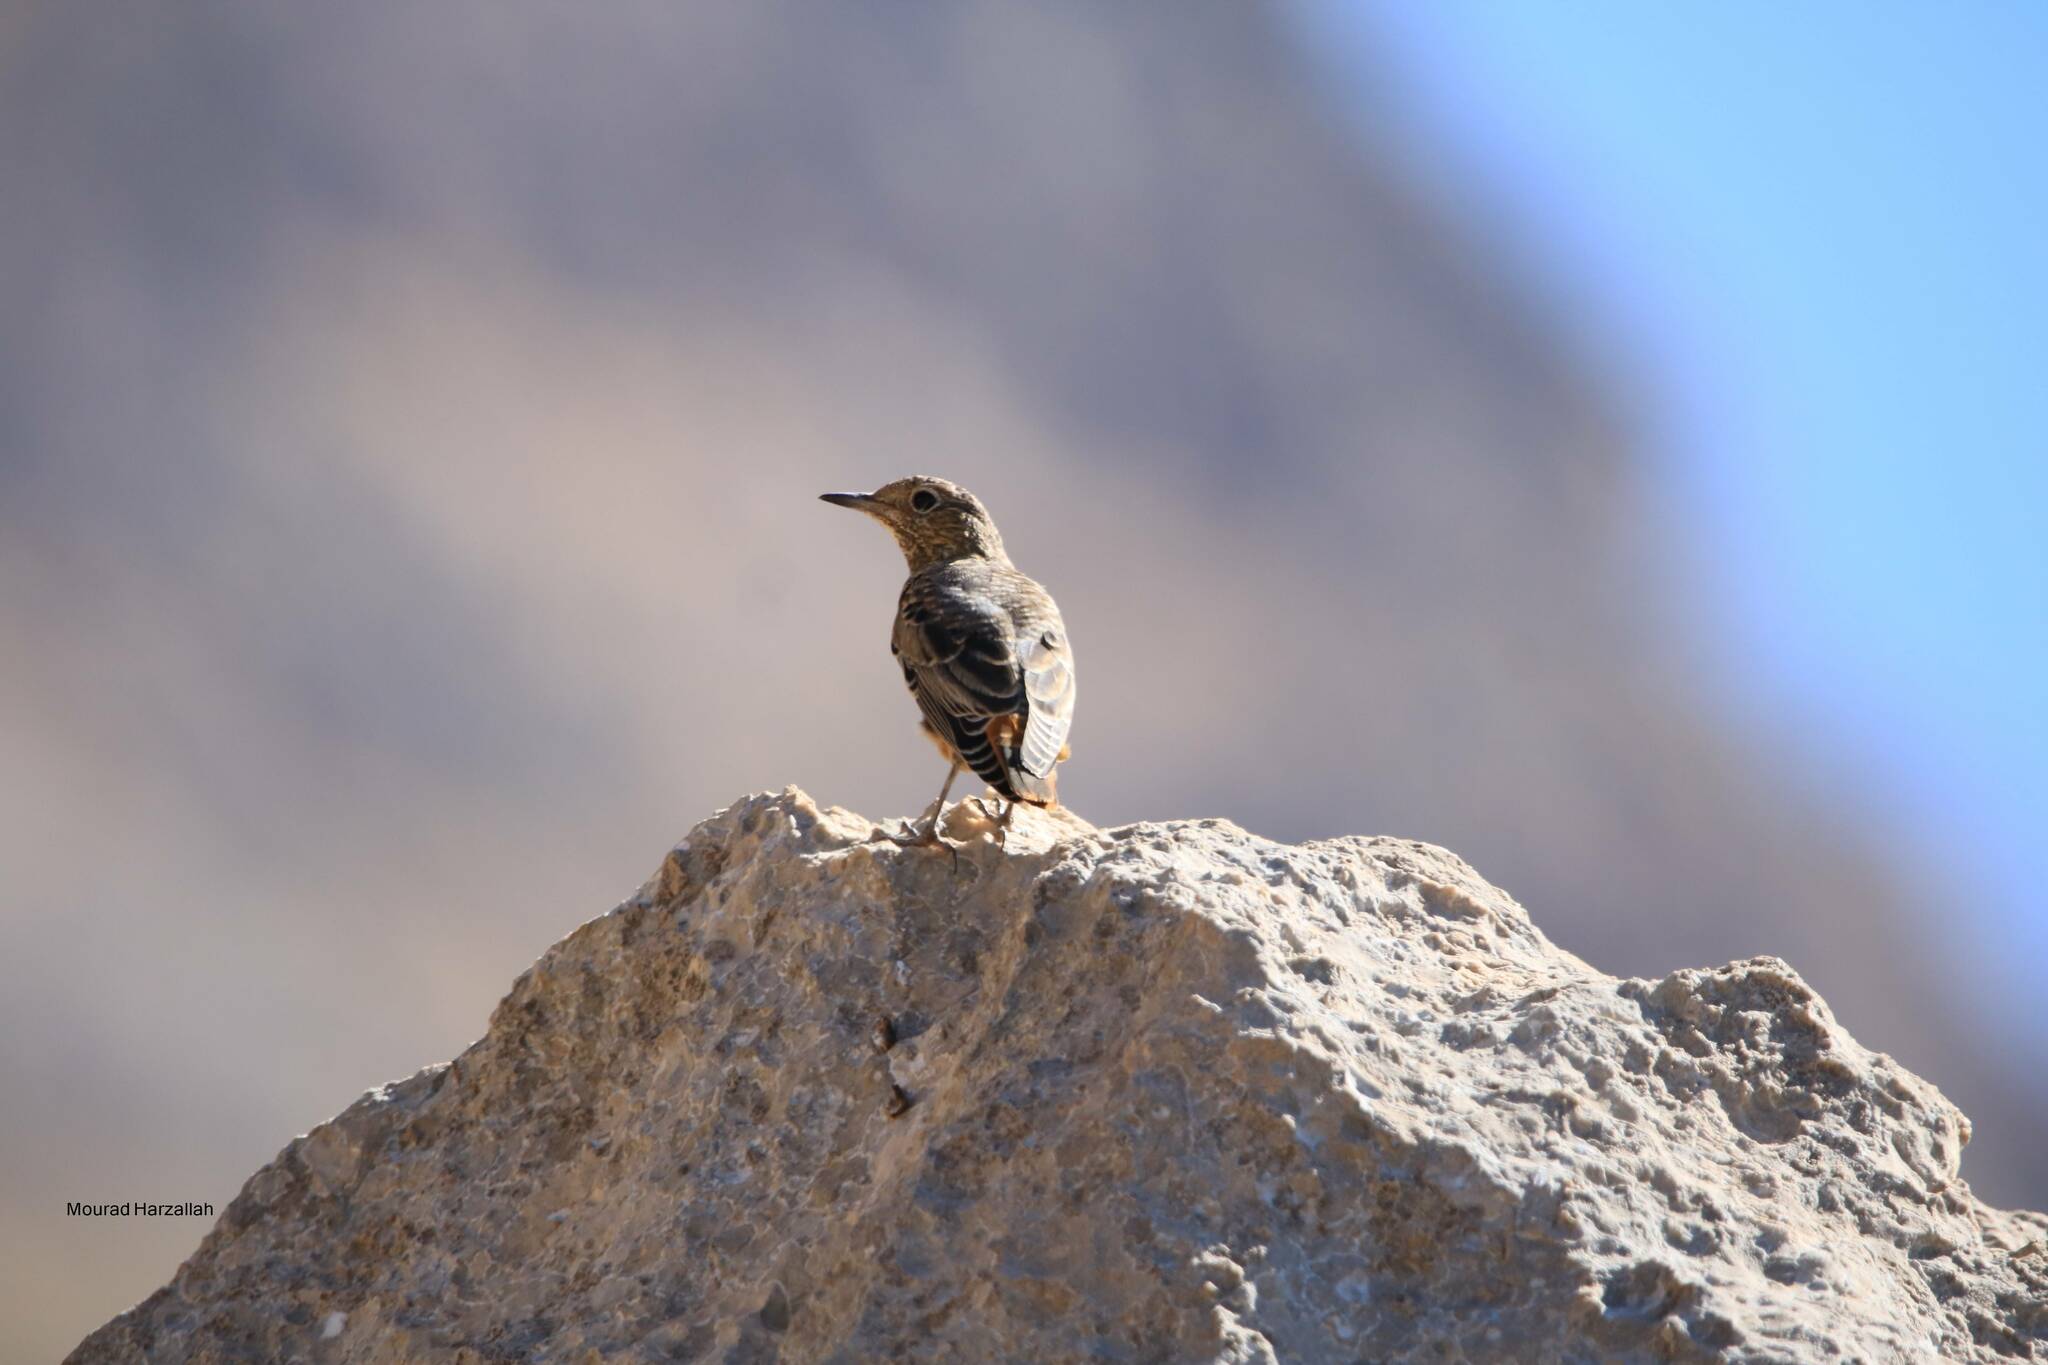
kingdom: Animalia
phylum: Chordata
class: Aves
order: Passeriformes
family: Muscicapidae
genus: Monticola
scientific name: Monticola saxatilis
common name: Rufous-tailed rock thrush
